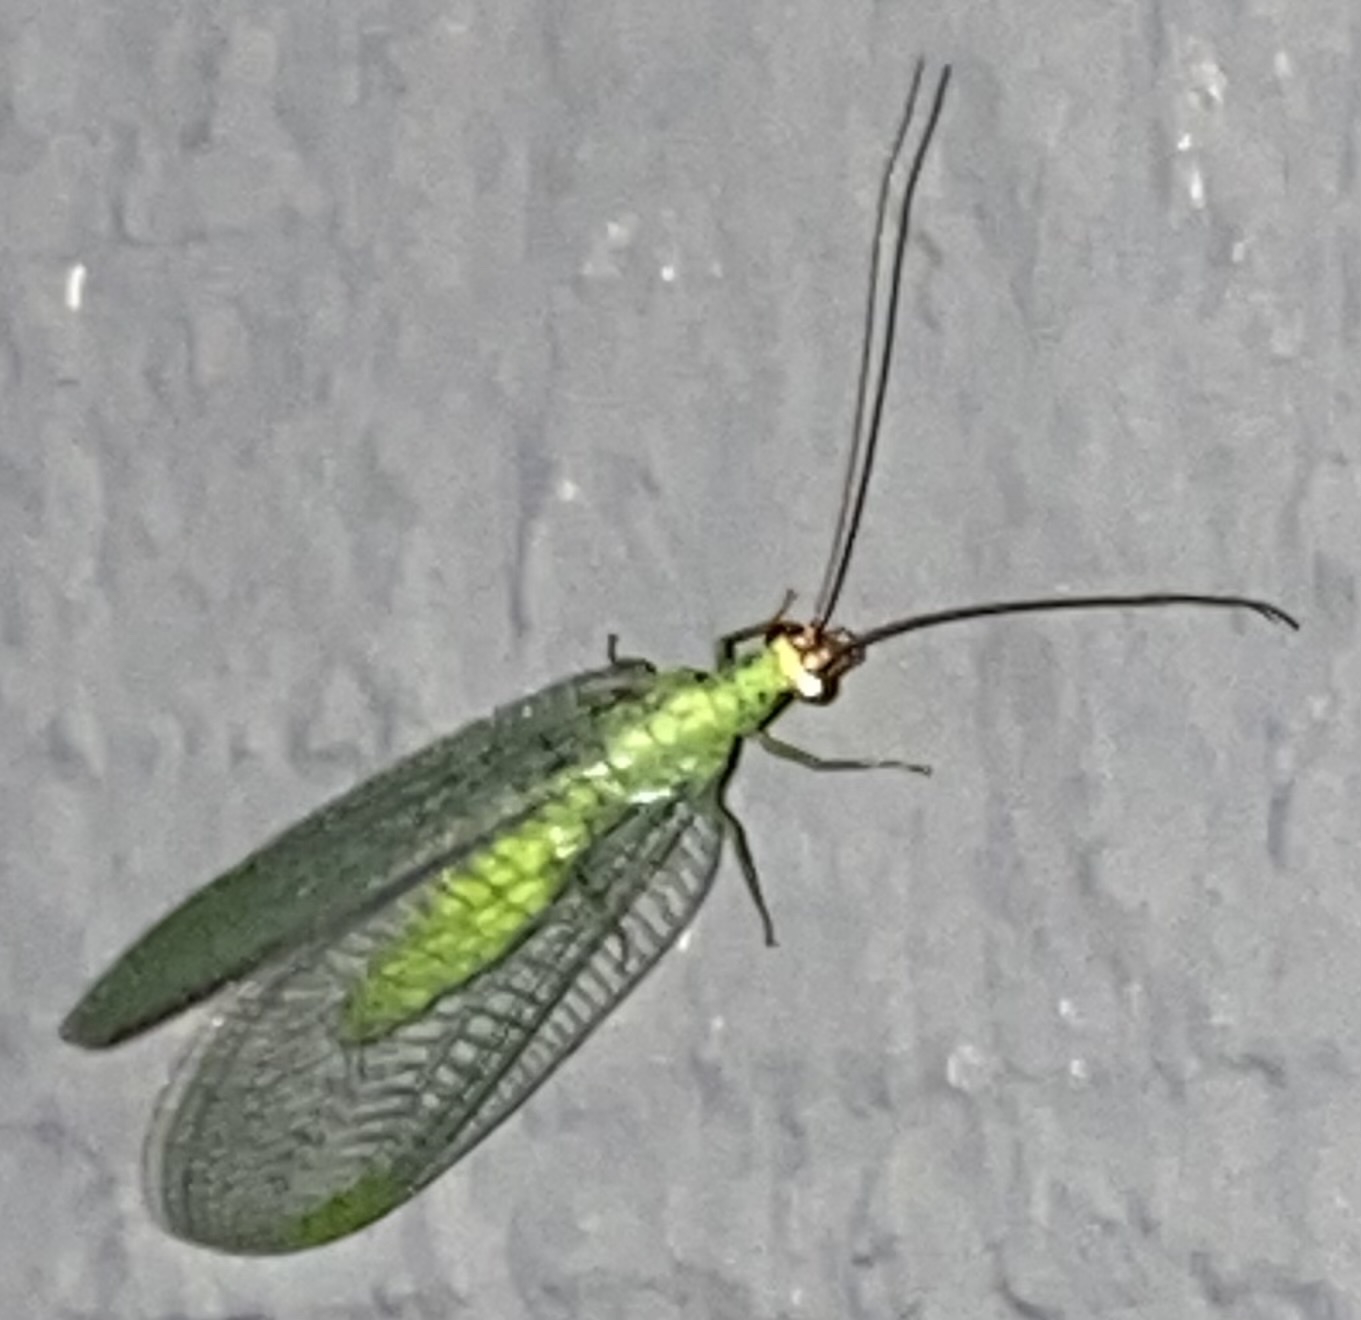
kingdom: Animalia
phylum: Arthropoda
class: Insecta
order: Neuroptera
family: Chrysopidae
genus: Chrysopa
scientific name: Chrysopa oculata
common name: Golden-eyed lacewing
